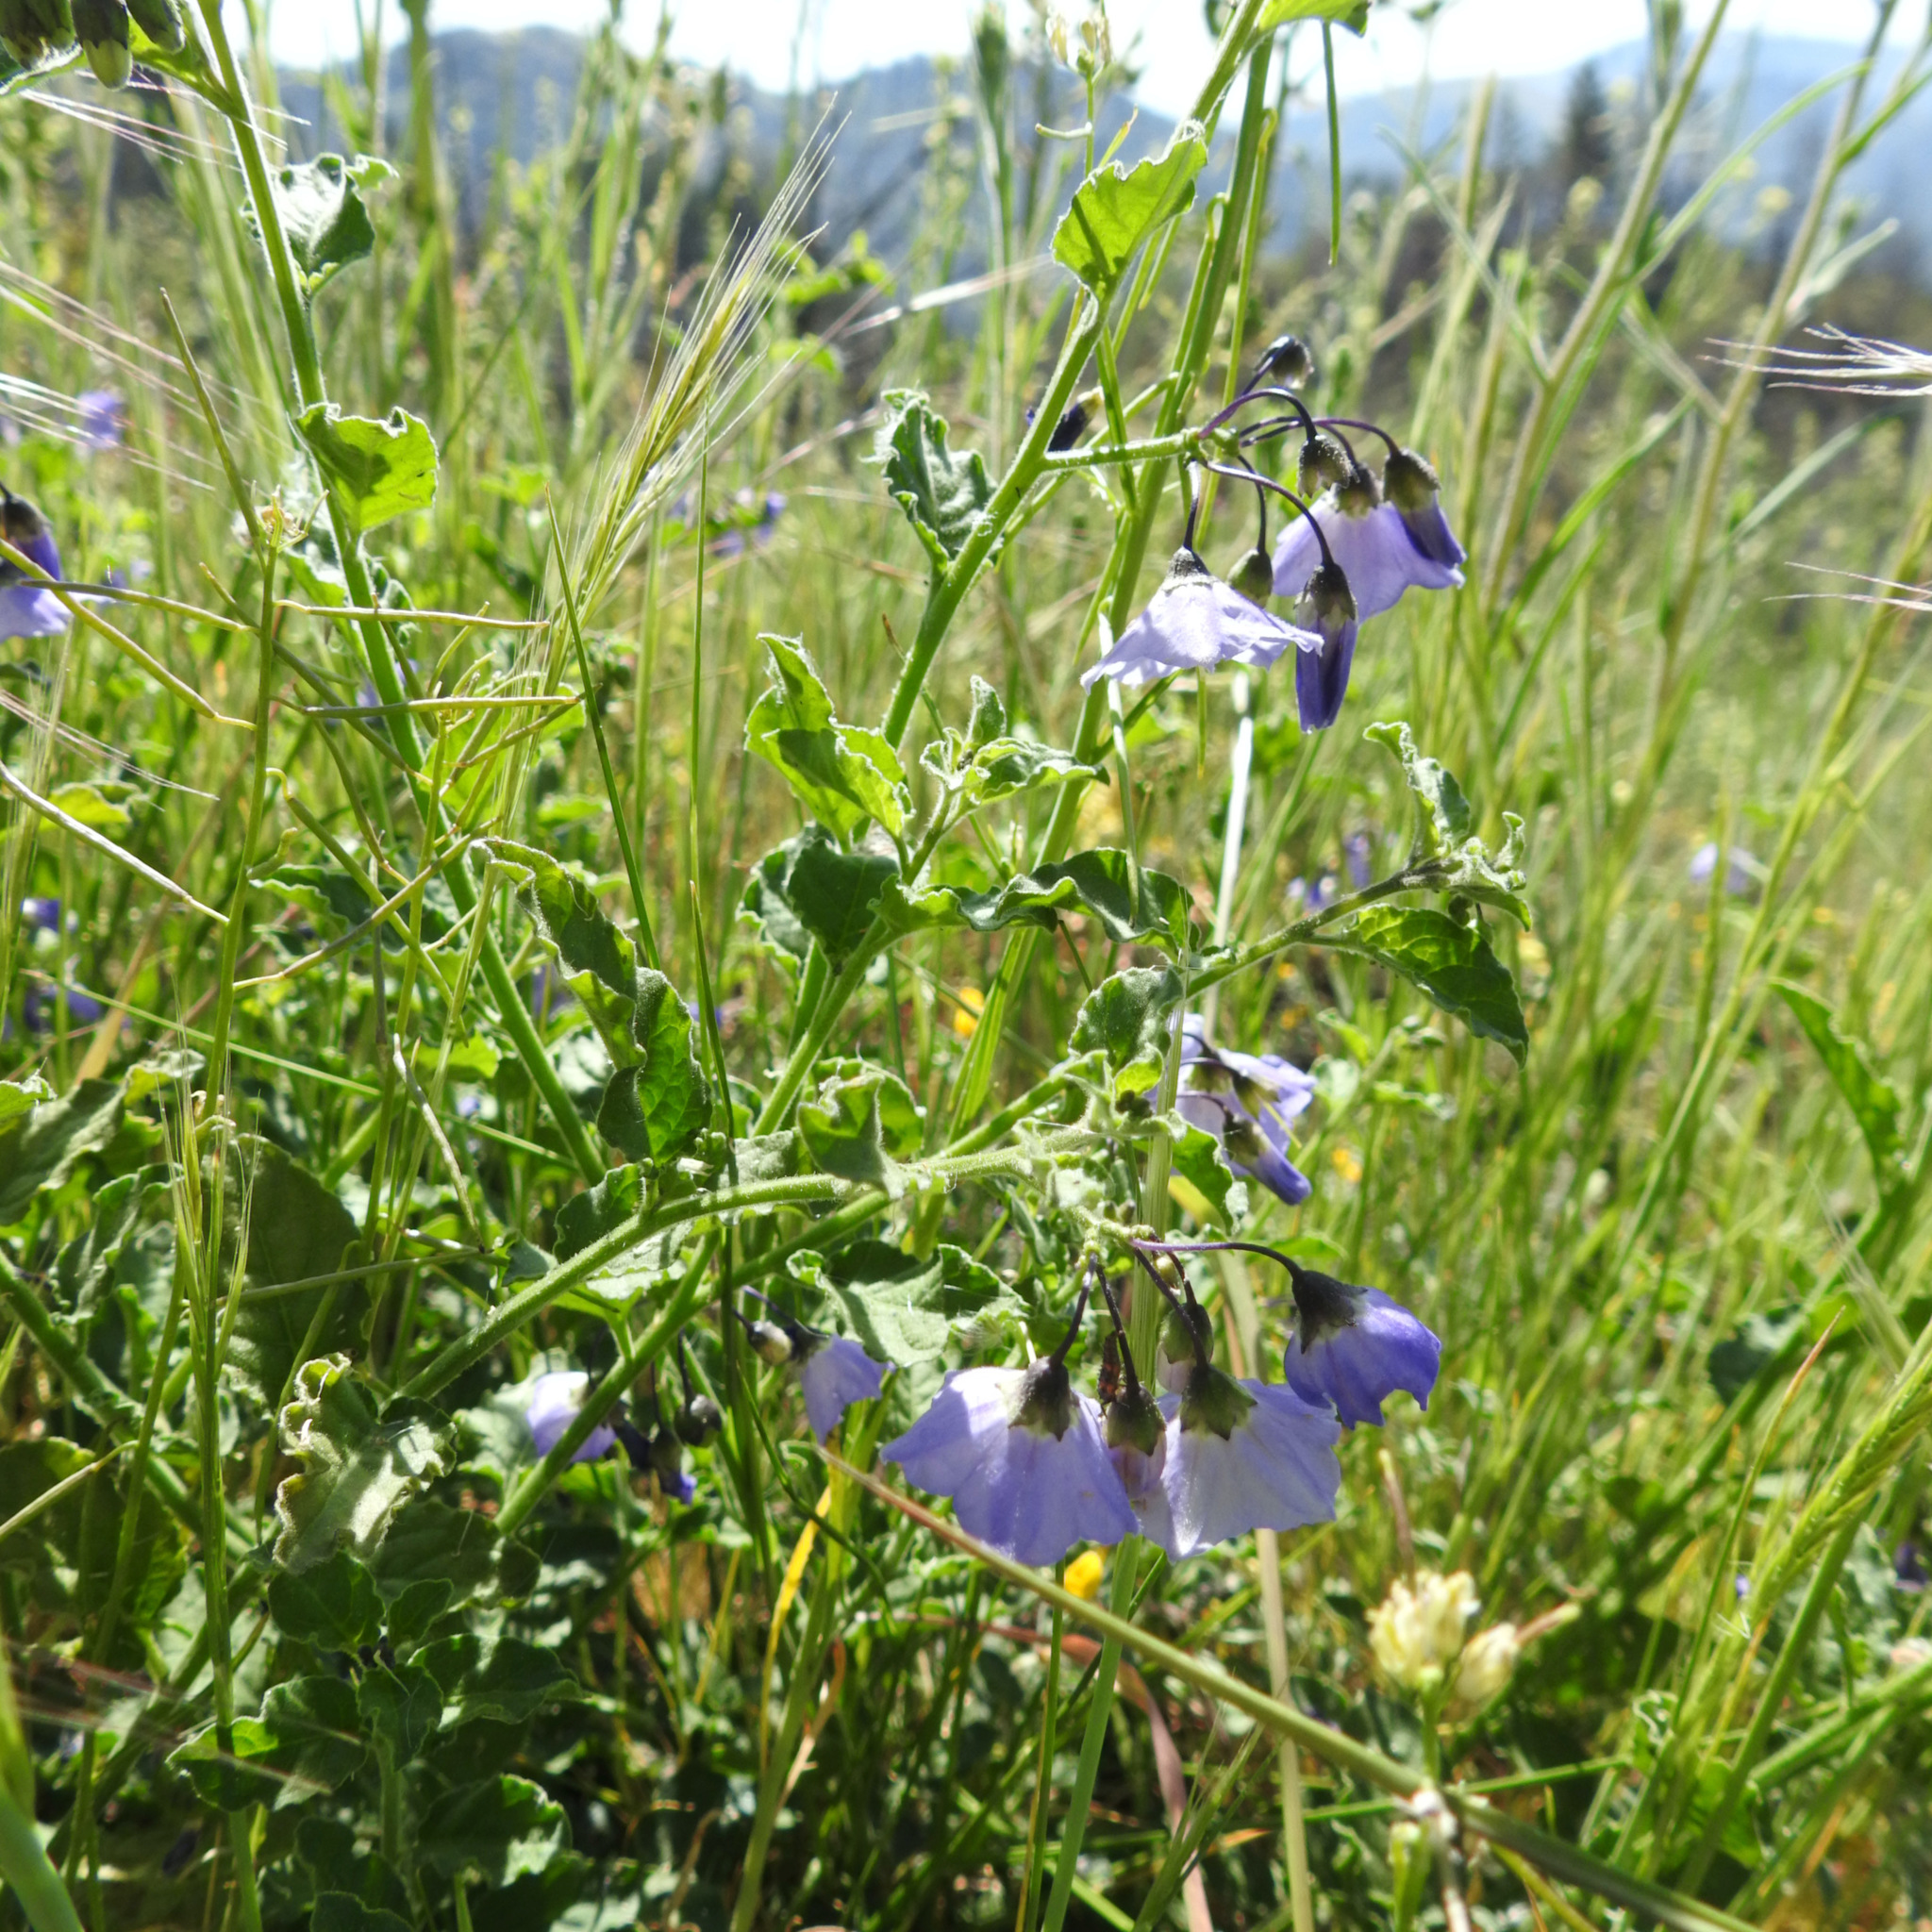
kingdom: Plantae
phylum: Tracheophyta
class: Magnoliopsida
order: Solanales
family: Solanaceae
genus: Solanum
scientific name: Solanum umbelliferum
